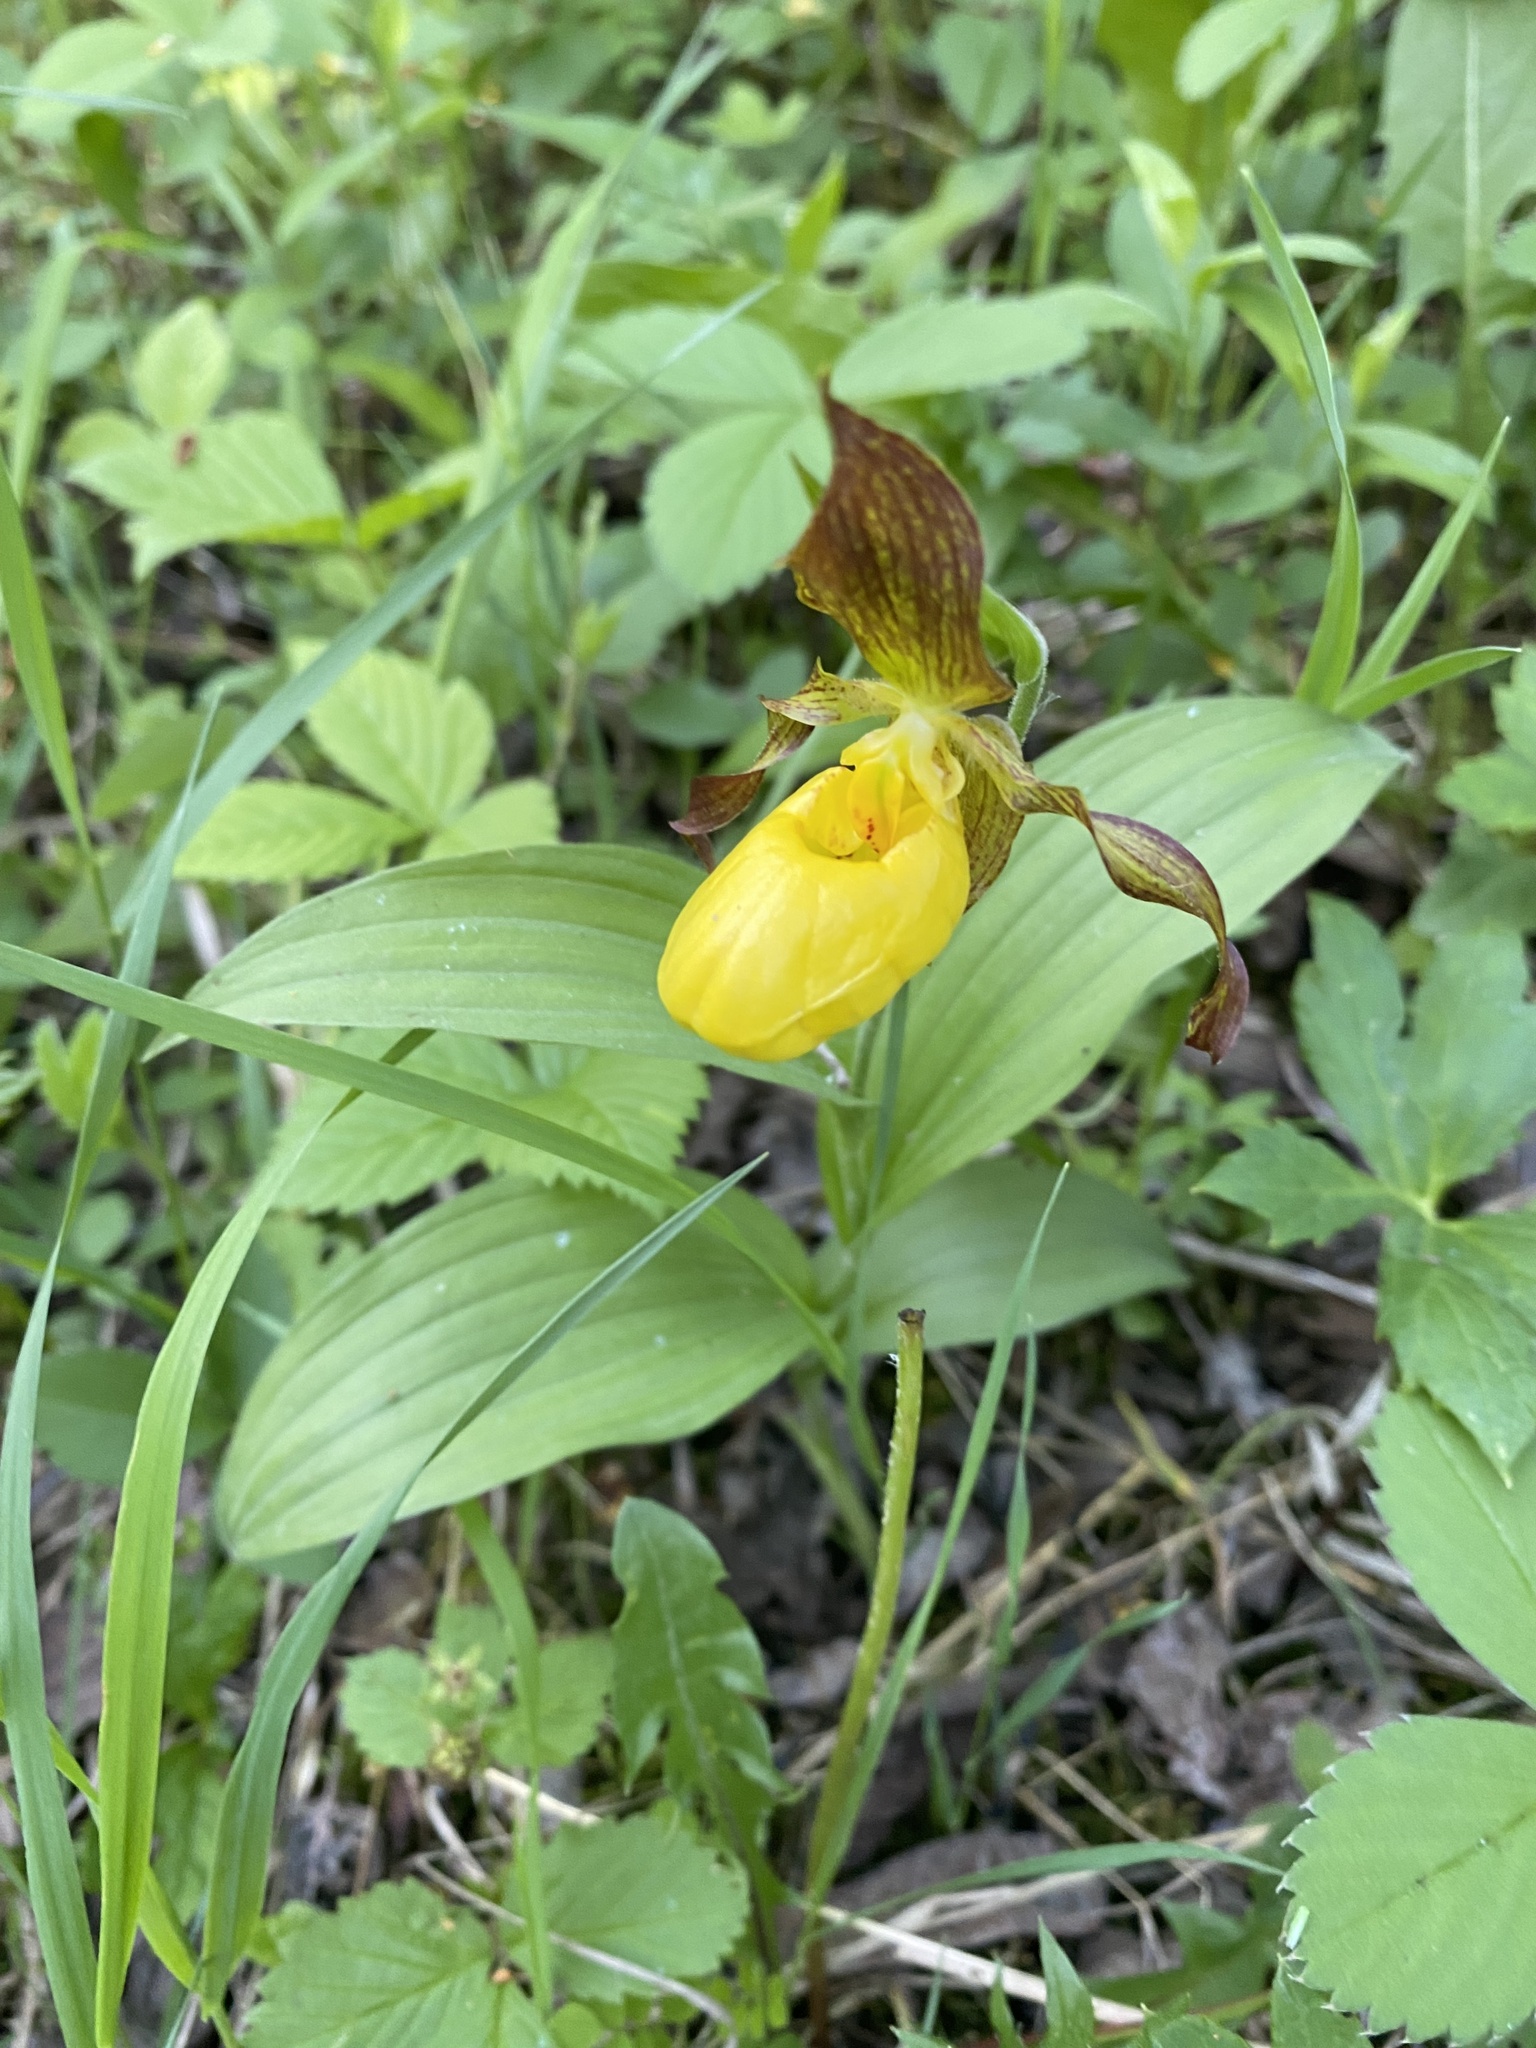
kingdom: Plantae
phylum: Tracheophyta
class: Liliopsida
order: Asparagales
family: Orchidaceae
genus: Cypripedium
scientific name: Cypripedium parviflorum
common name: American yellow lady's-slipper
